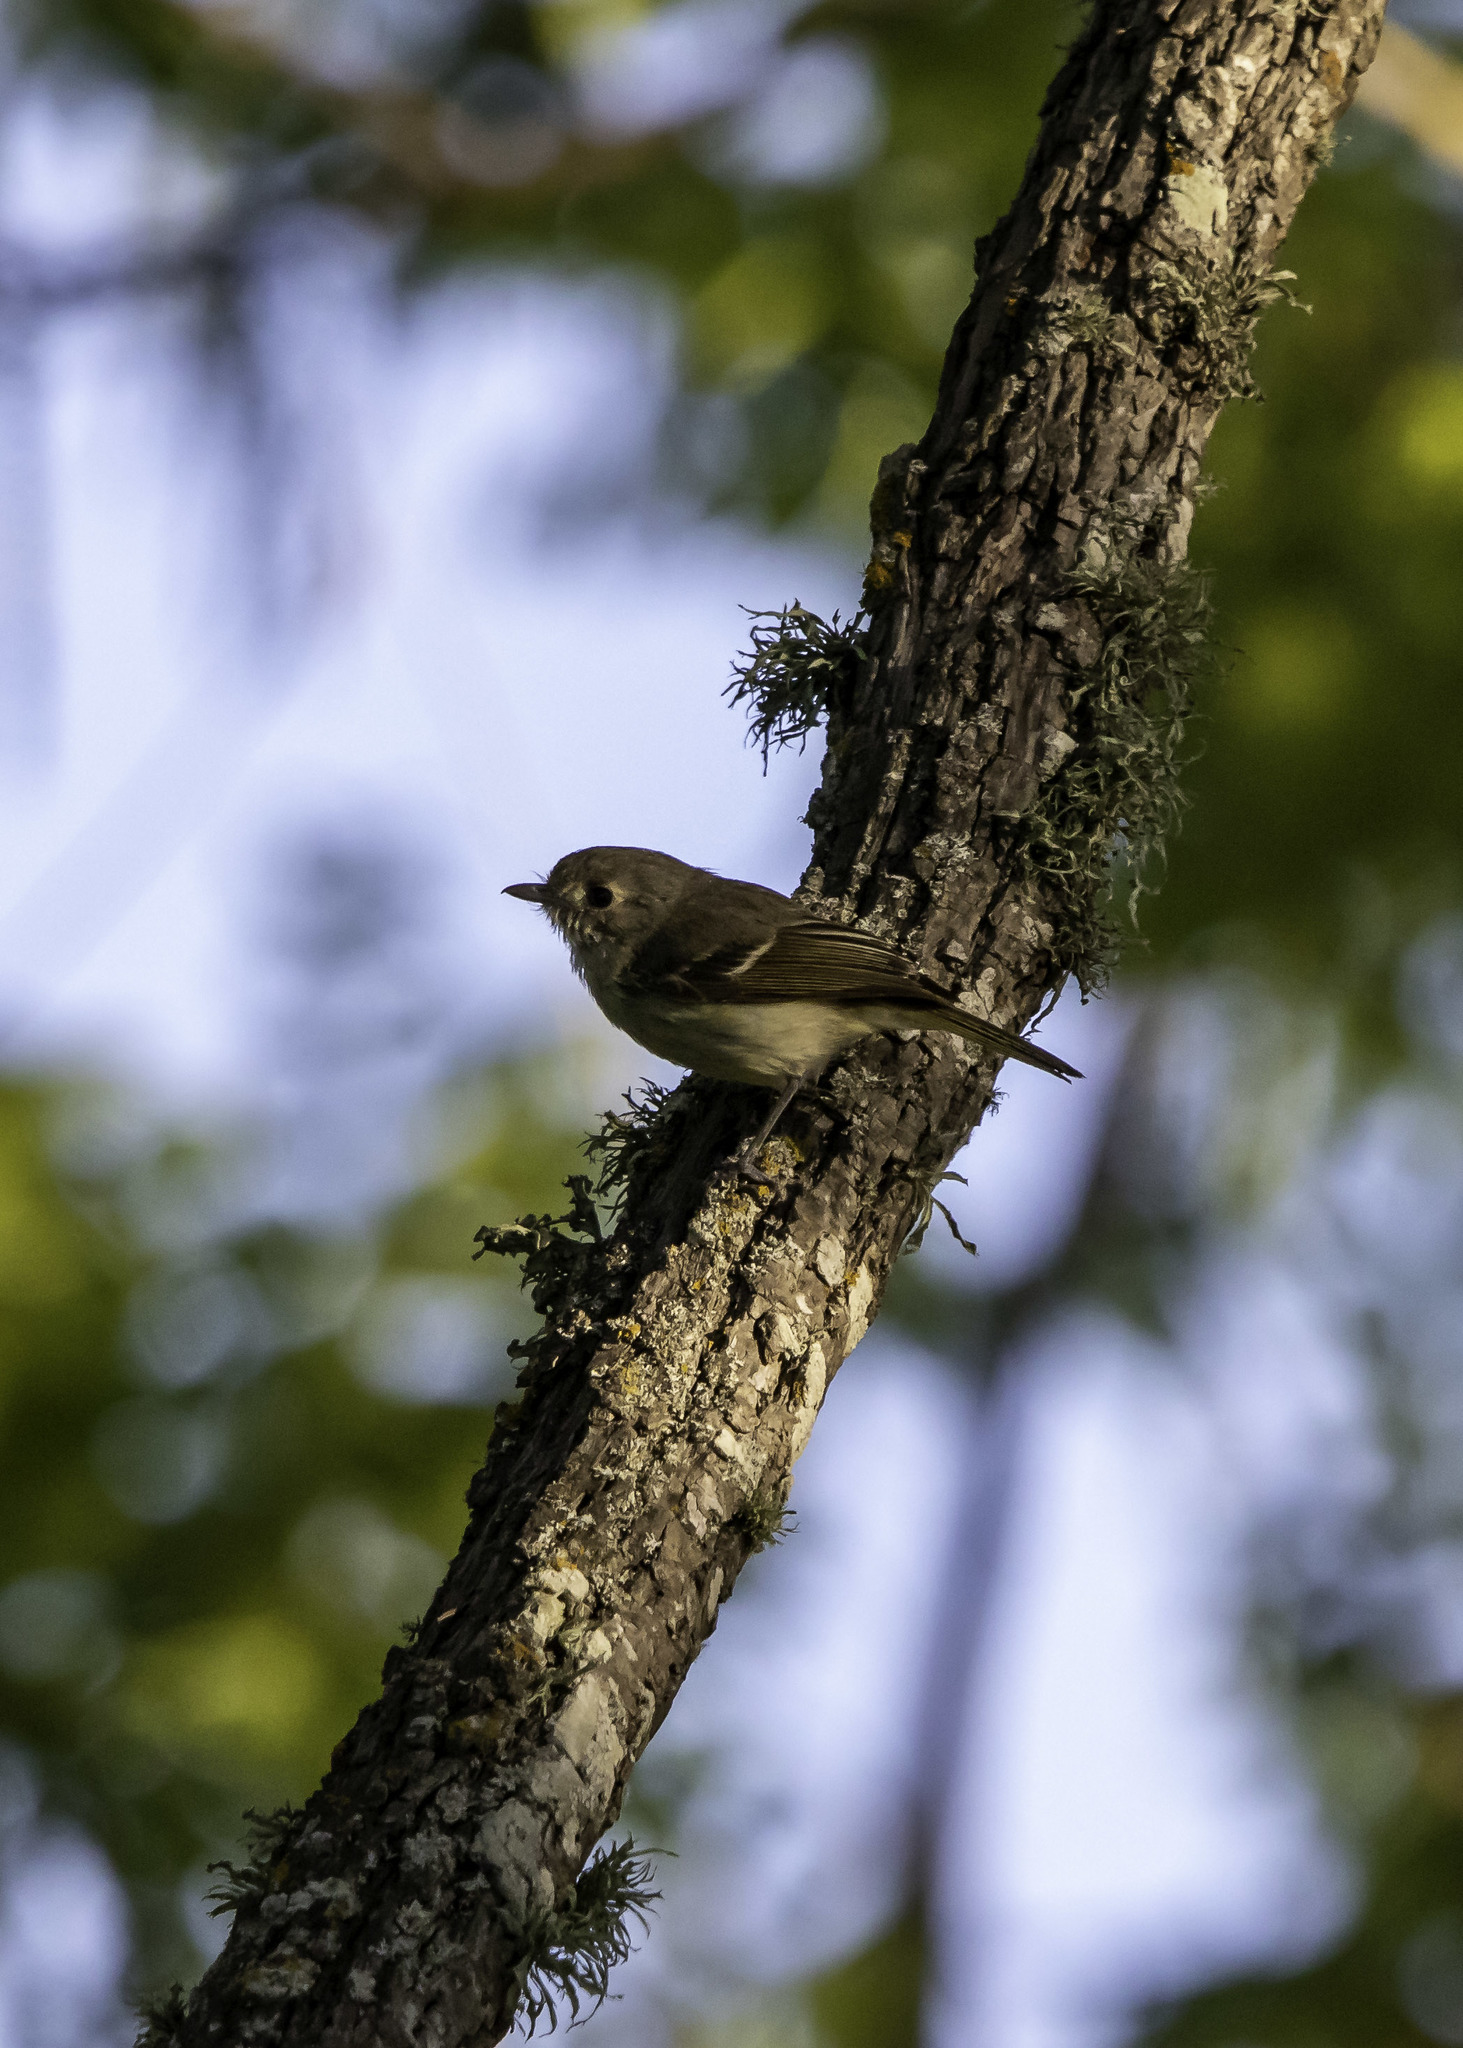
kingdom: Animalia
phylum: Chordata
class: Aves
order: Passeriformes
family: Vireonidae
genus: Vireo
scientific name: Vireo huttoni
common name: Hutton's vireo
